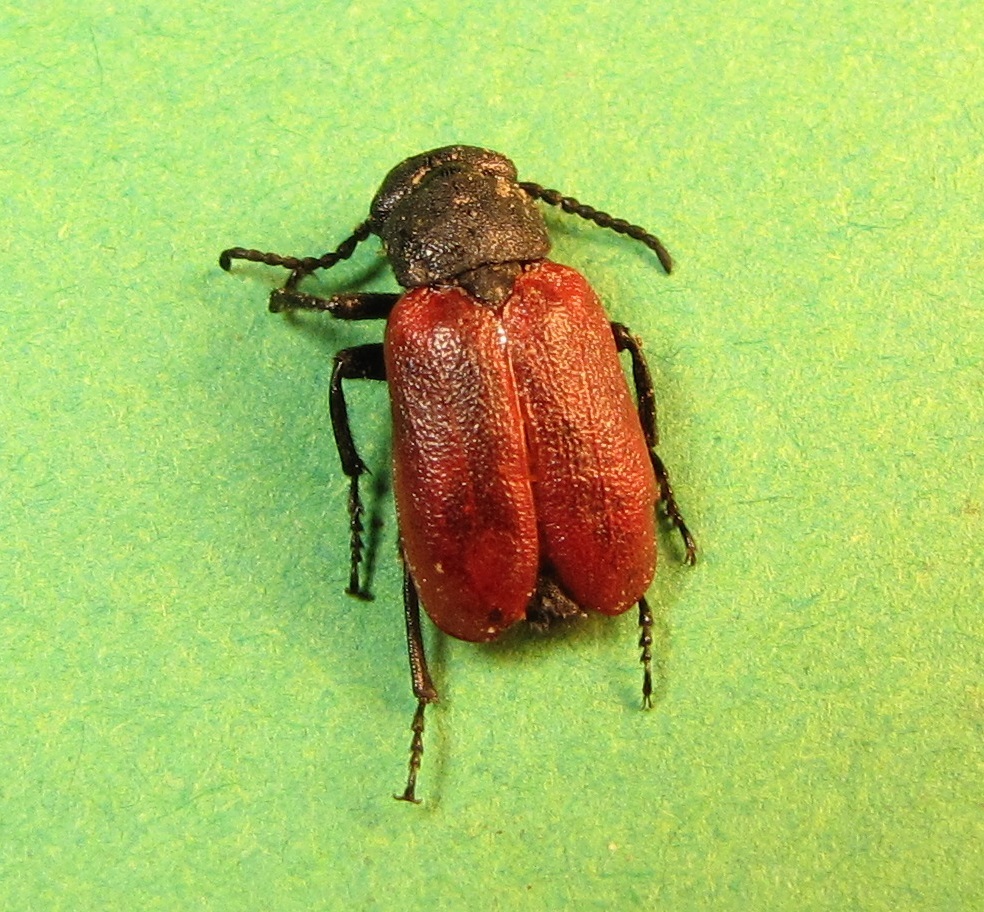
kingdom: Animalia
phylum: Arthropoda
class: Insecta
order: Coleoptera
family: Meloidae
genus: Tricrania
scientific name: Tricrania sanguinipennis
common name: Blood-winged blister beetle
